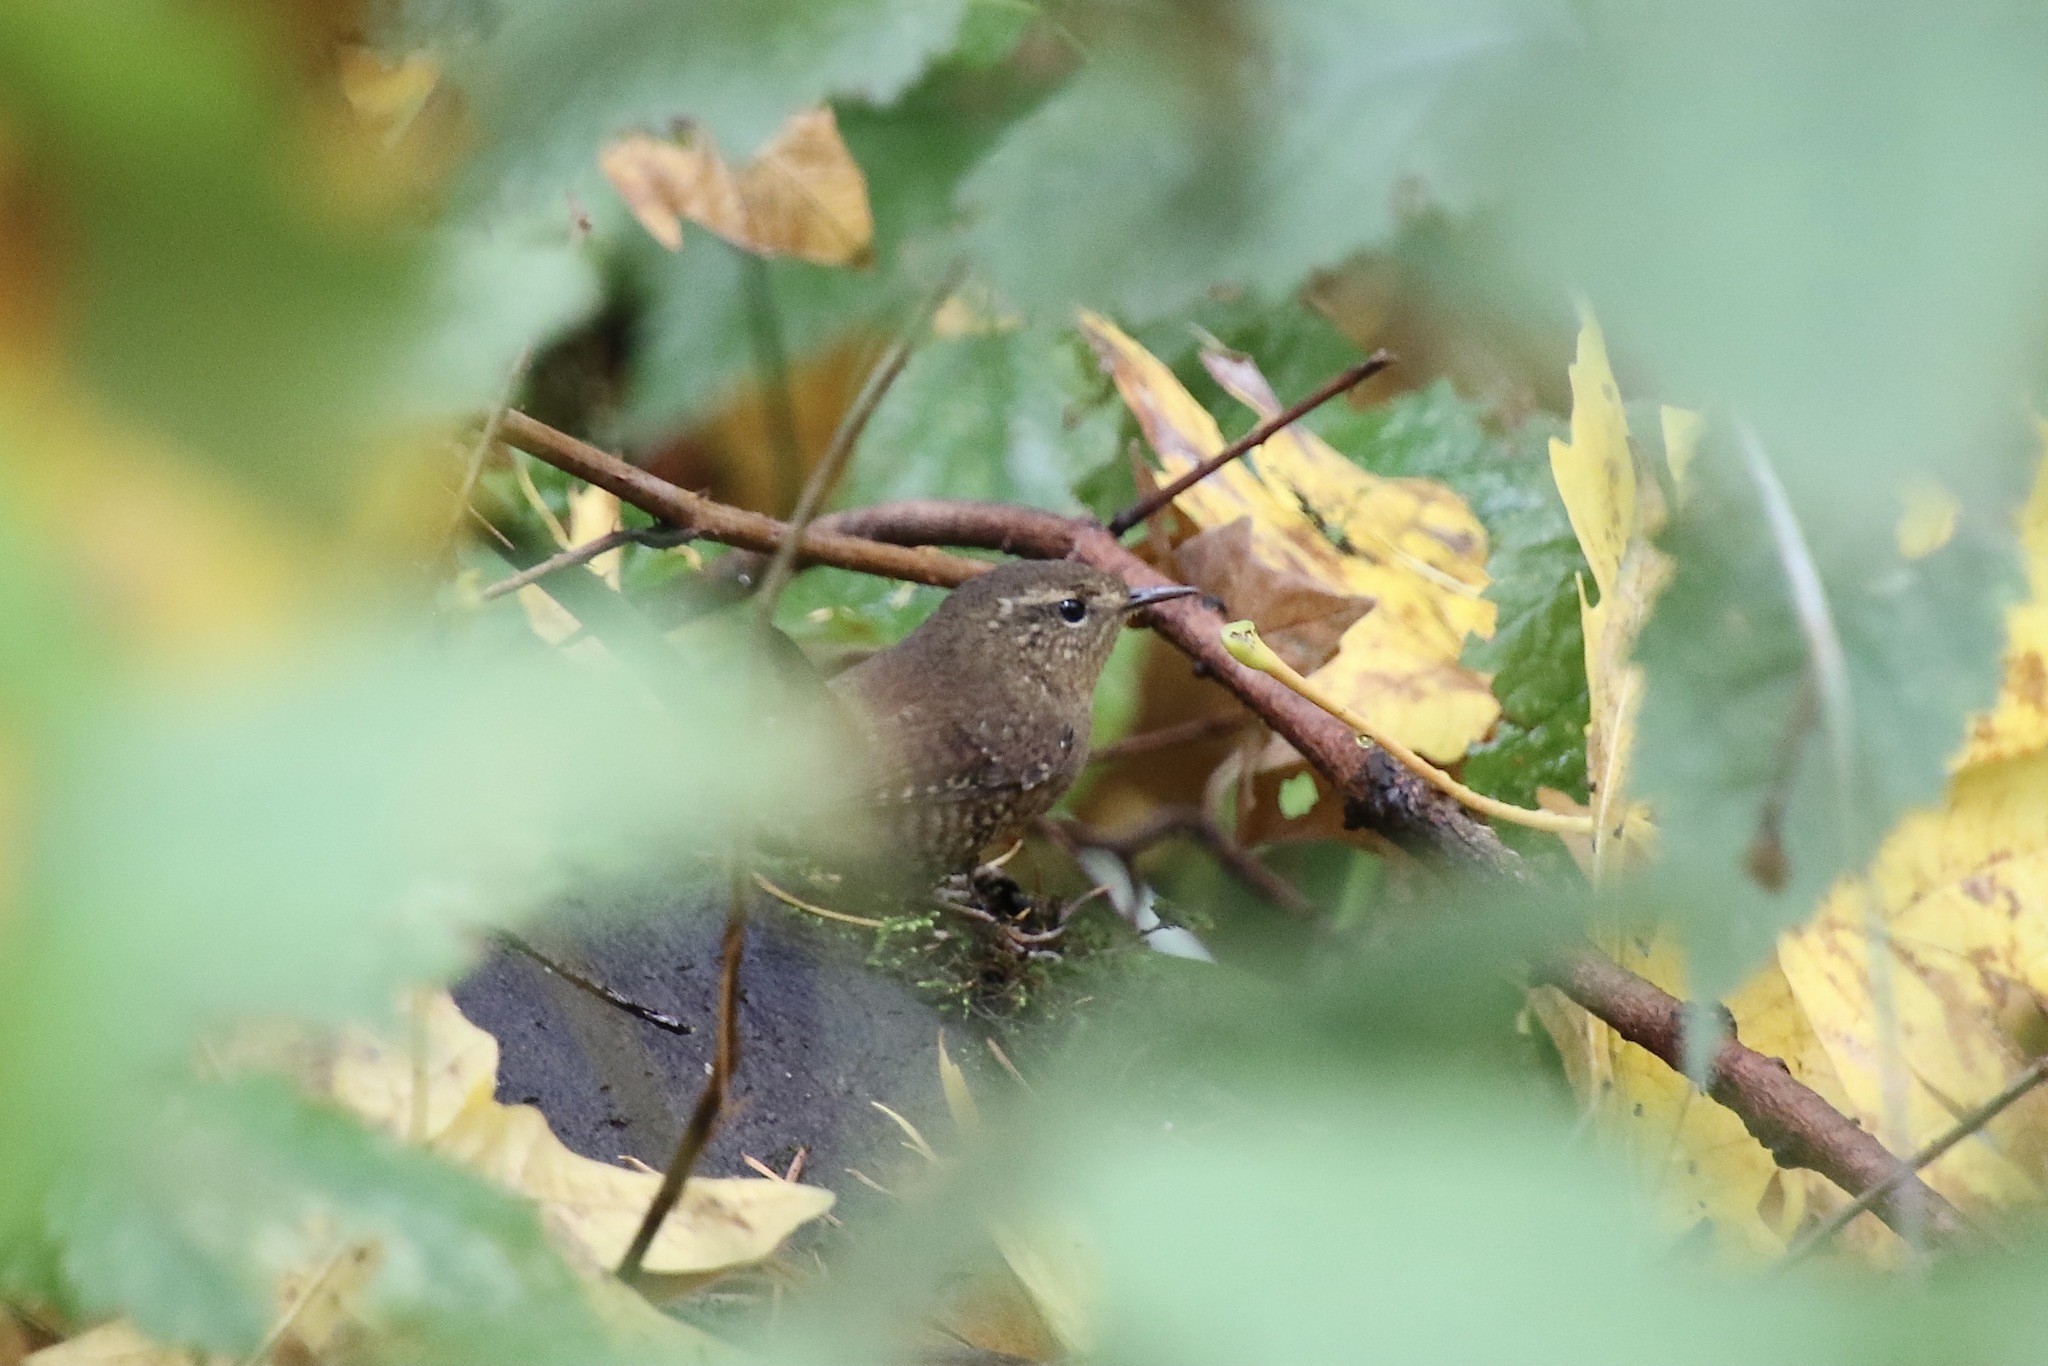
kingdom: Animalia
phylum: Chordata
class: Aves
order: Passeriformes
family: Troglodytidae
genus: Troglodytes
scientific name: Troglodytes pacificus
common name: Pacific wren
